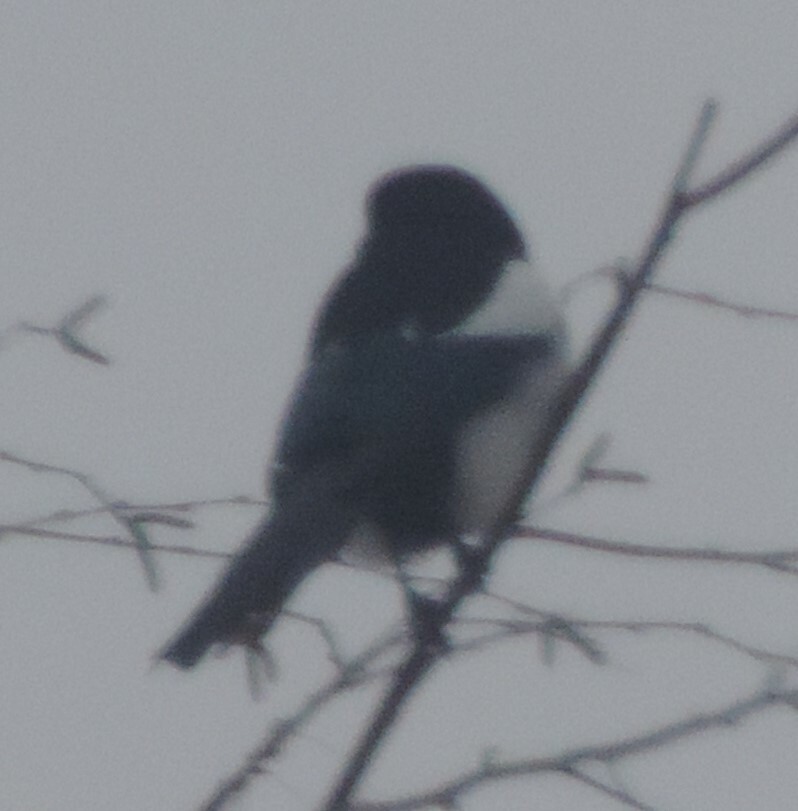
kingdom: Animalia
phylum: Chordata
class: Aves
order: Passeriformes
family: Corvidae
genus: Pica
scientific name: Pica hudsonia
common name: Black-billed magpie
